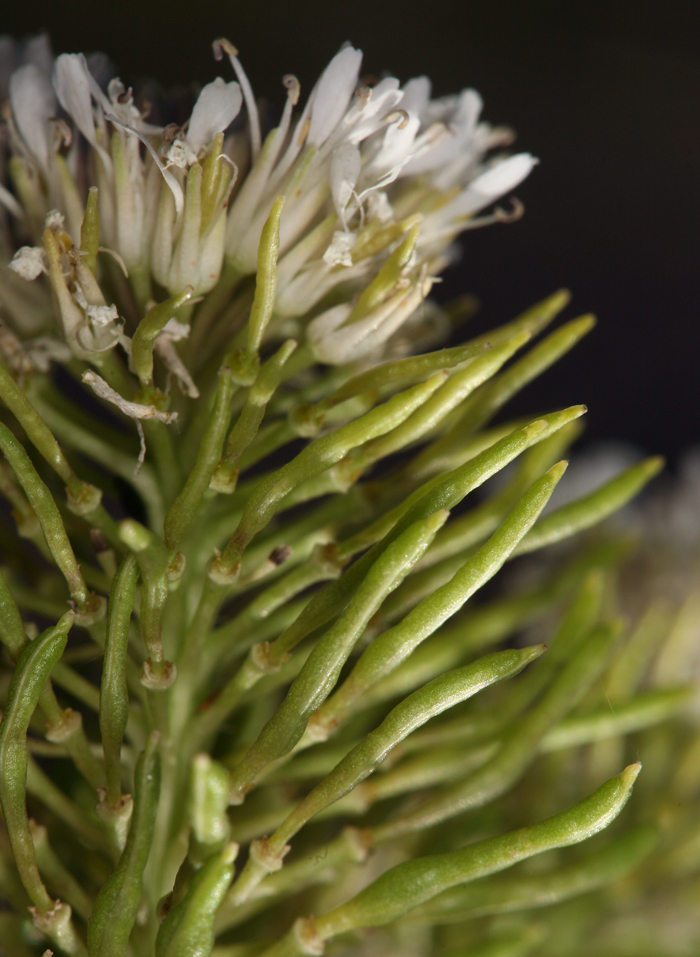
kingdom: Plantae
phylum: Tracheophyta
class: Magnoliopsida
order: Brassicales
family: Brassicaceae
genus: Thelypodium
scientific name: Thelypodium integrifolium
